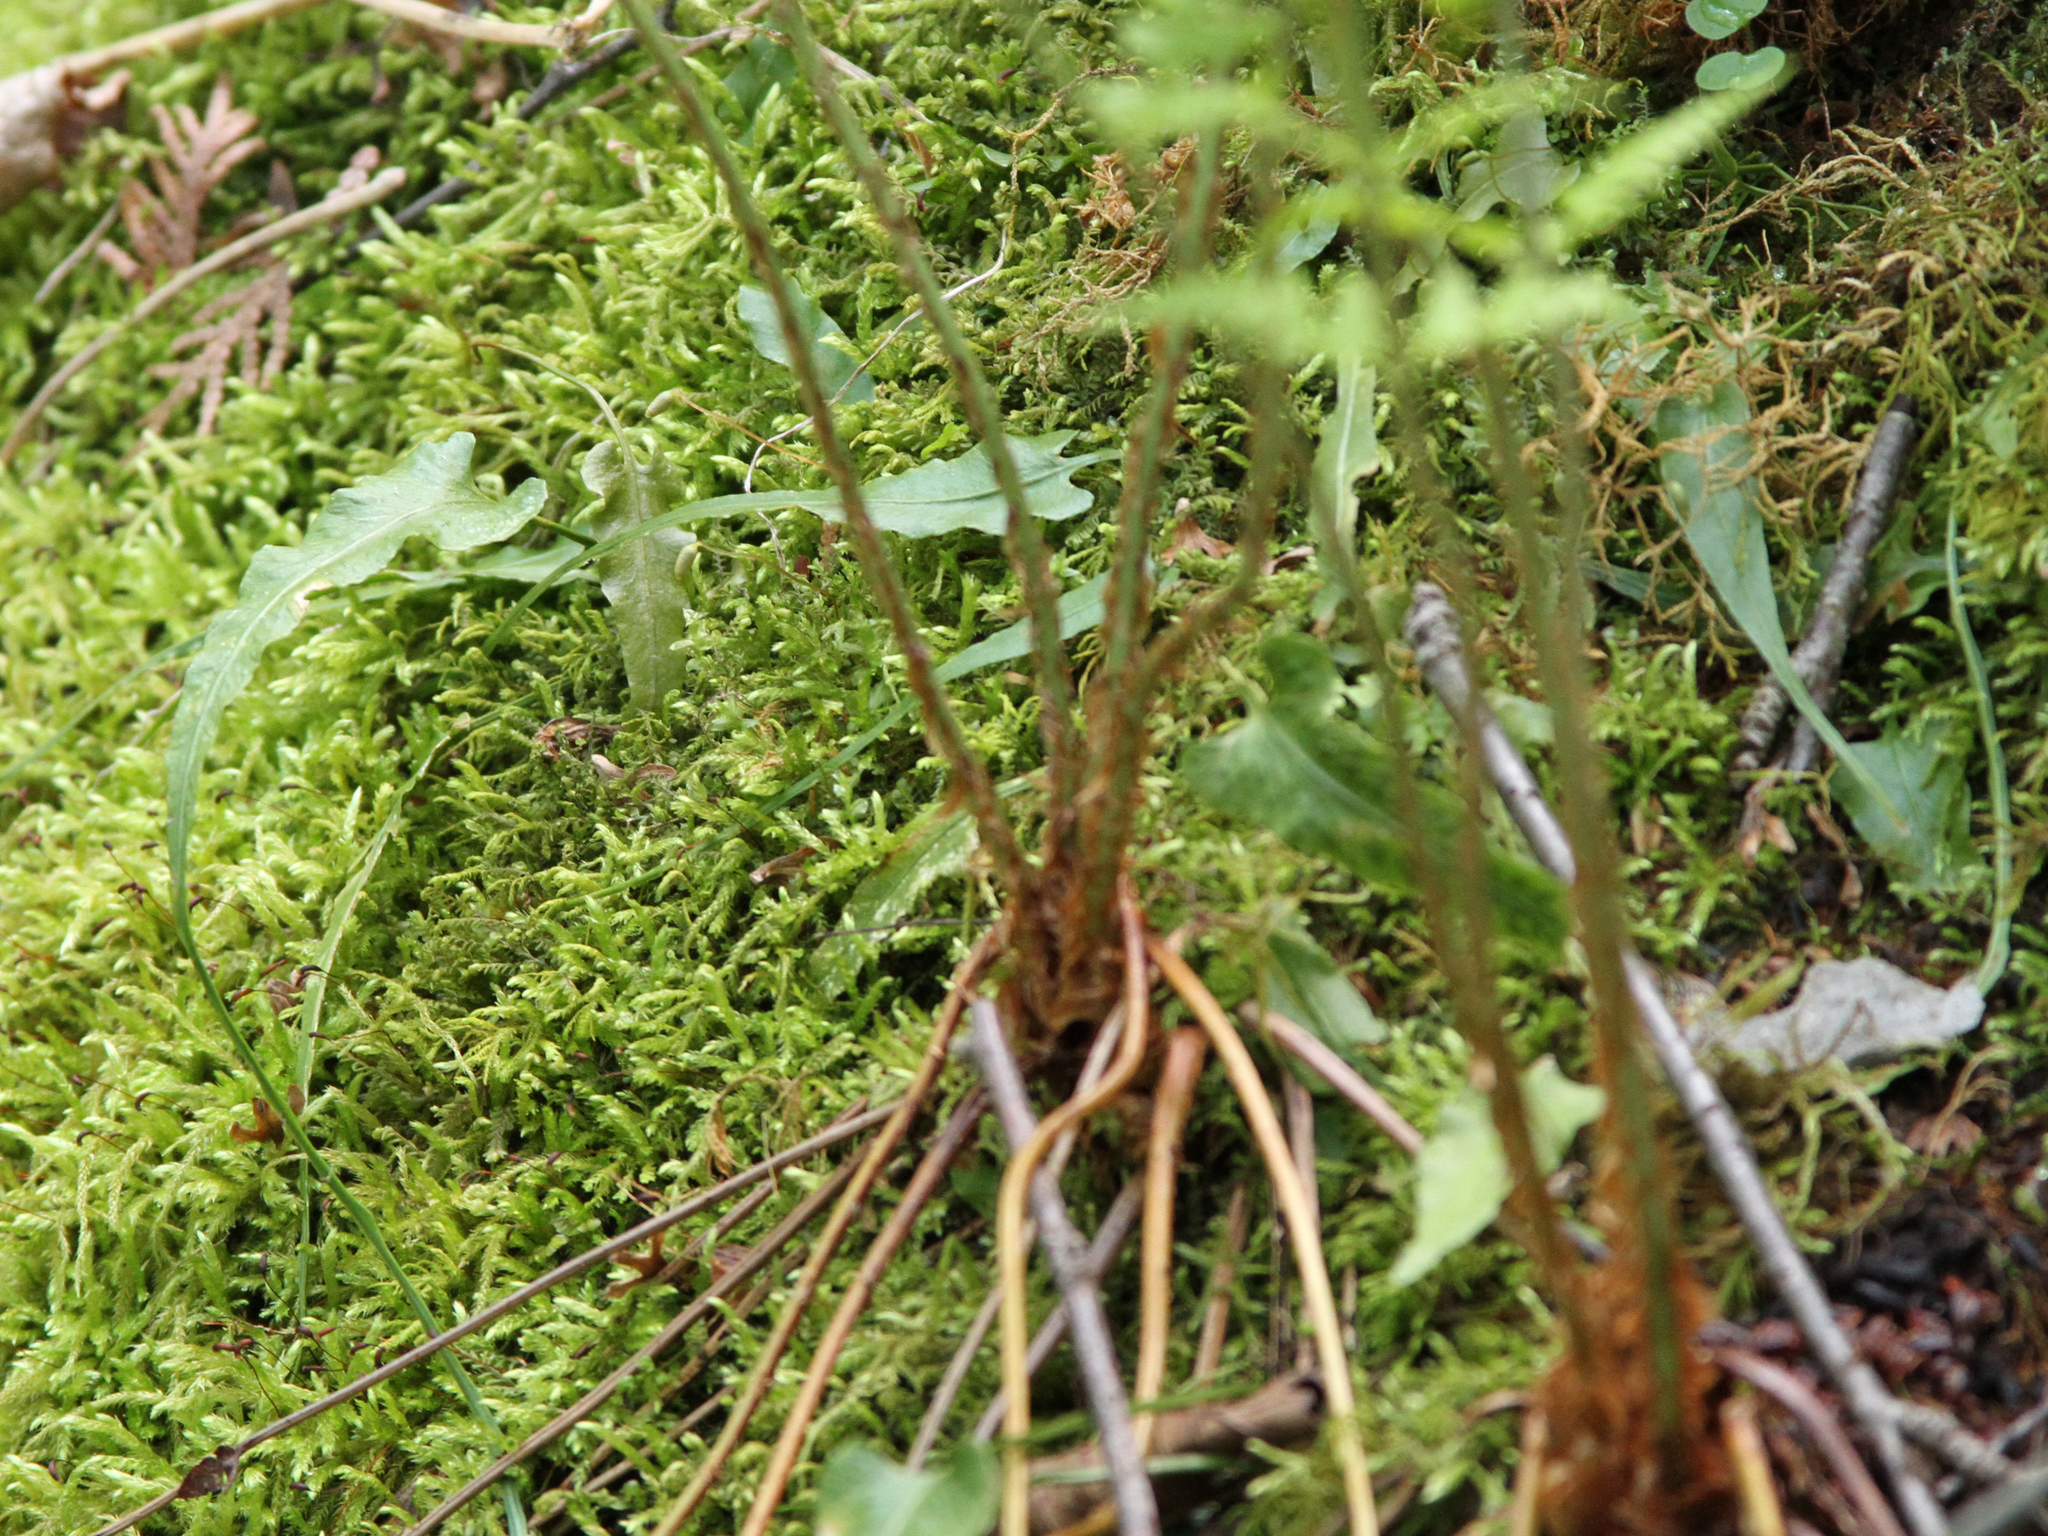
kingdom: Plantae
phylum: Tracheophyta
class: Polypodiopsida
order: Polypodiales
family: Aspleniaceae
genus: Asplenium
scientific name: Asplenium rhizophyllum
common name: Walking fern
